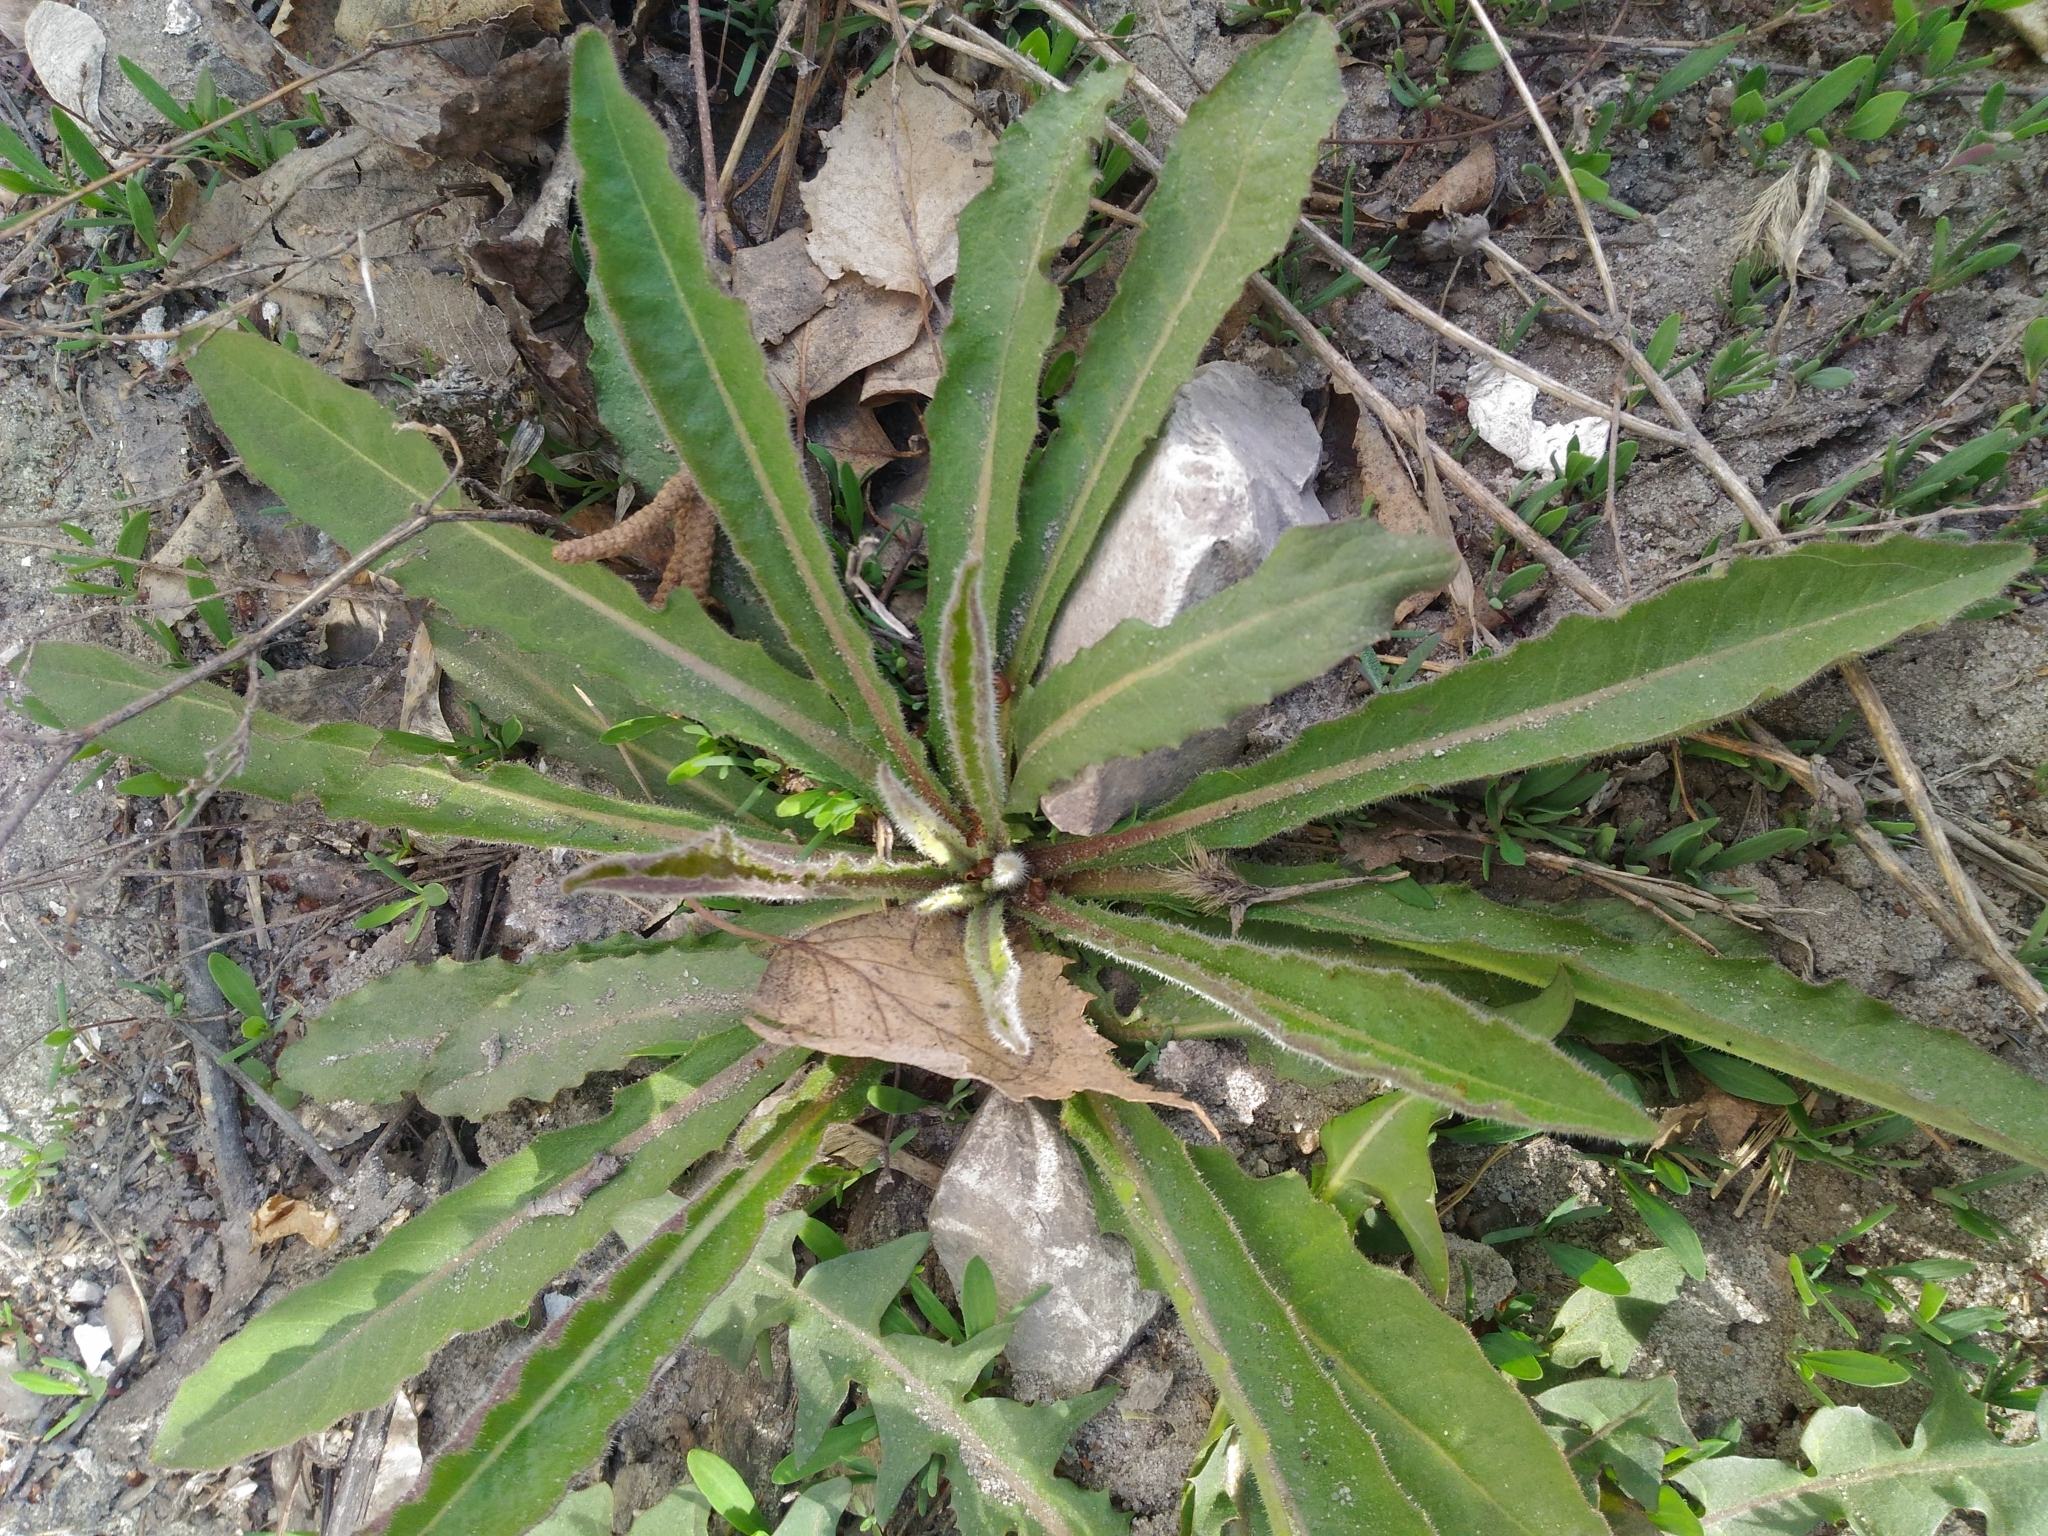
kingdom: Plantae
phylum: Tracheophyta
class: Magnoliopsida
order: Asterales
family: Asteraceae
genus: Picris
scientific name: Picris hieracioides
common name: Hawkweed oxtongue
